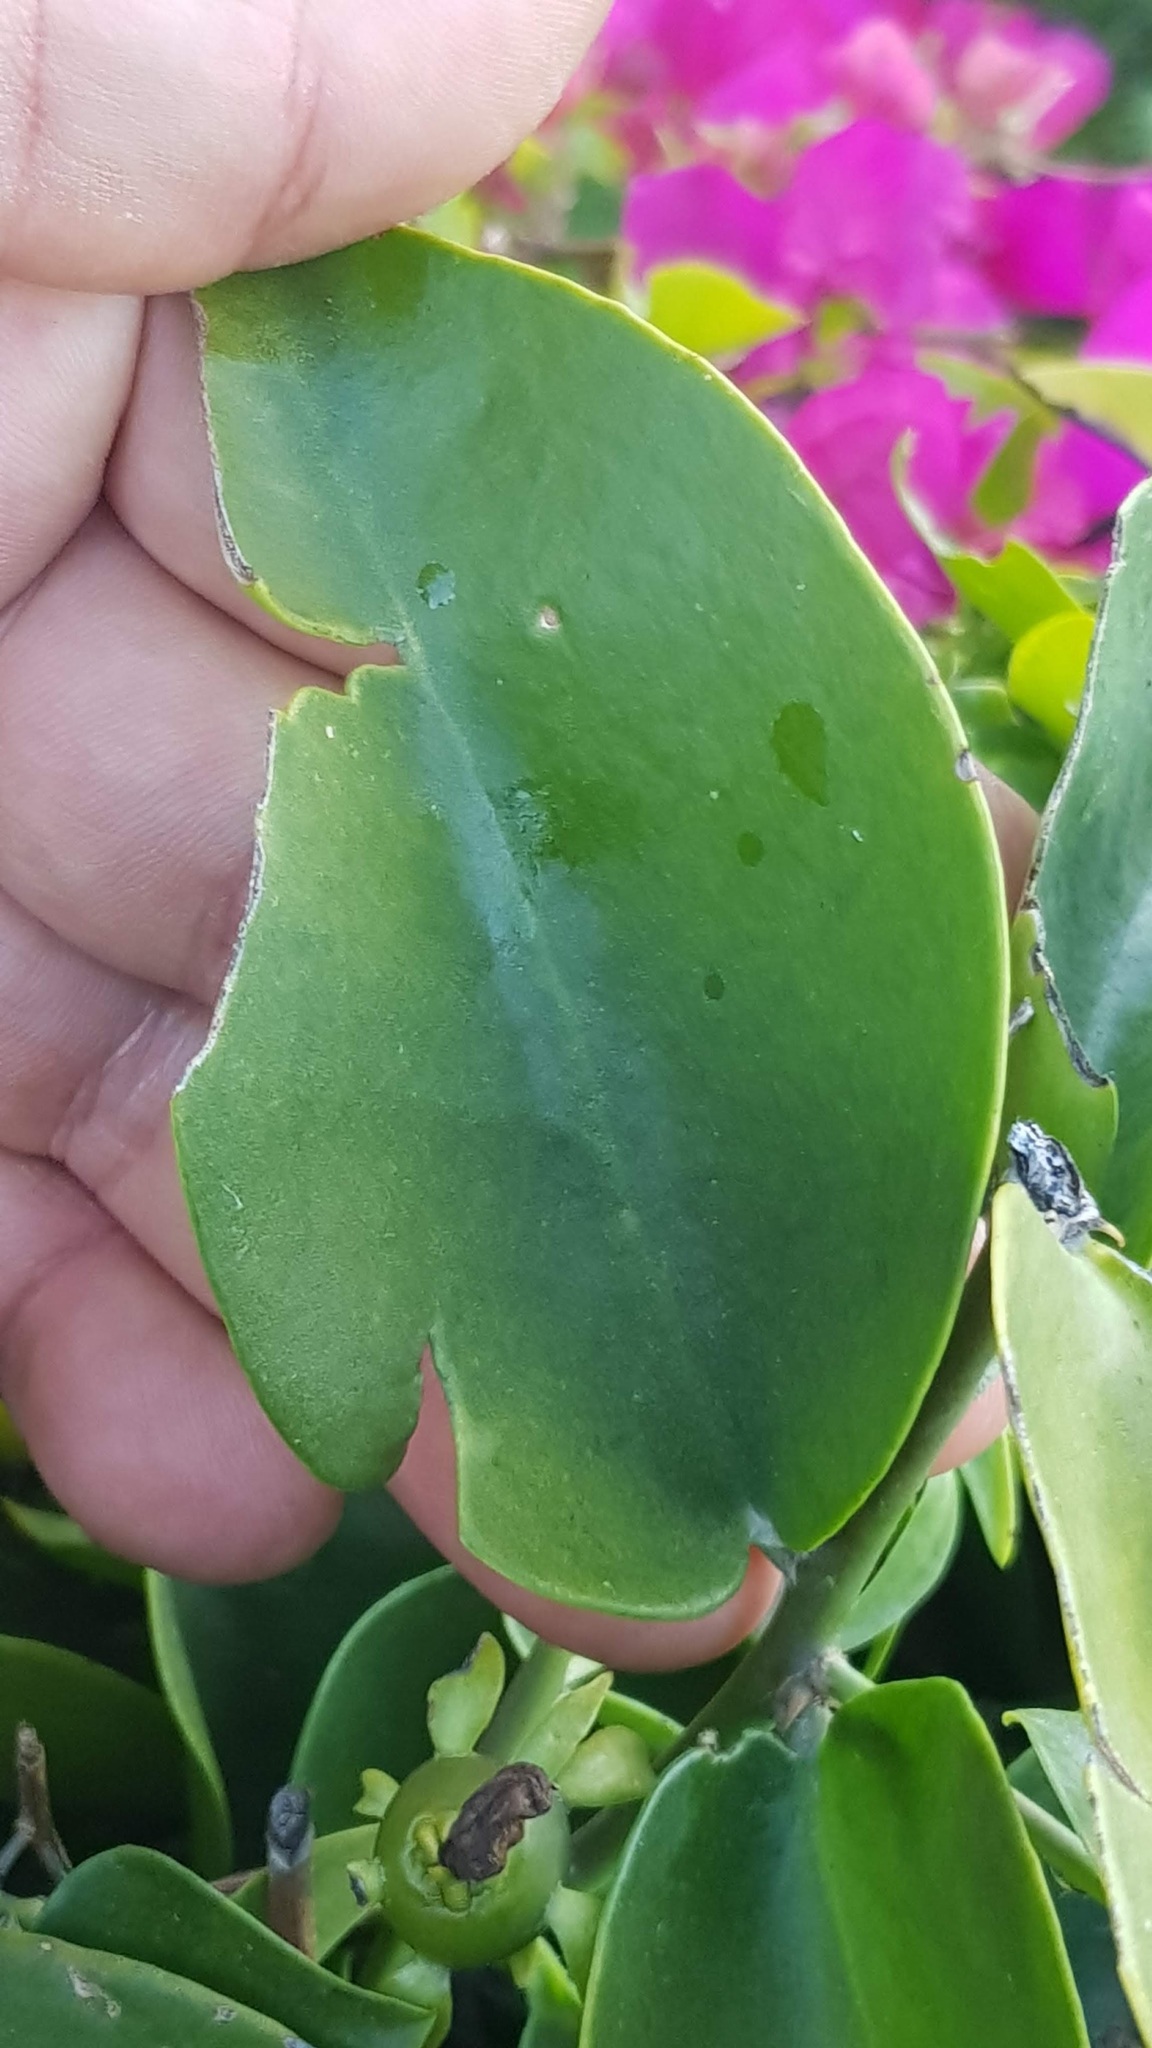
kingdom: Plantae
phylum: Tracheophyta
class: Magnoliopsida
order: Caryophyllales
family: Cactaceae
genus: Pereskia
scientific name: Pereskia aculeata
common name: Barbados gooseberry
